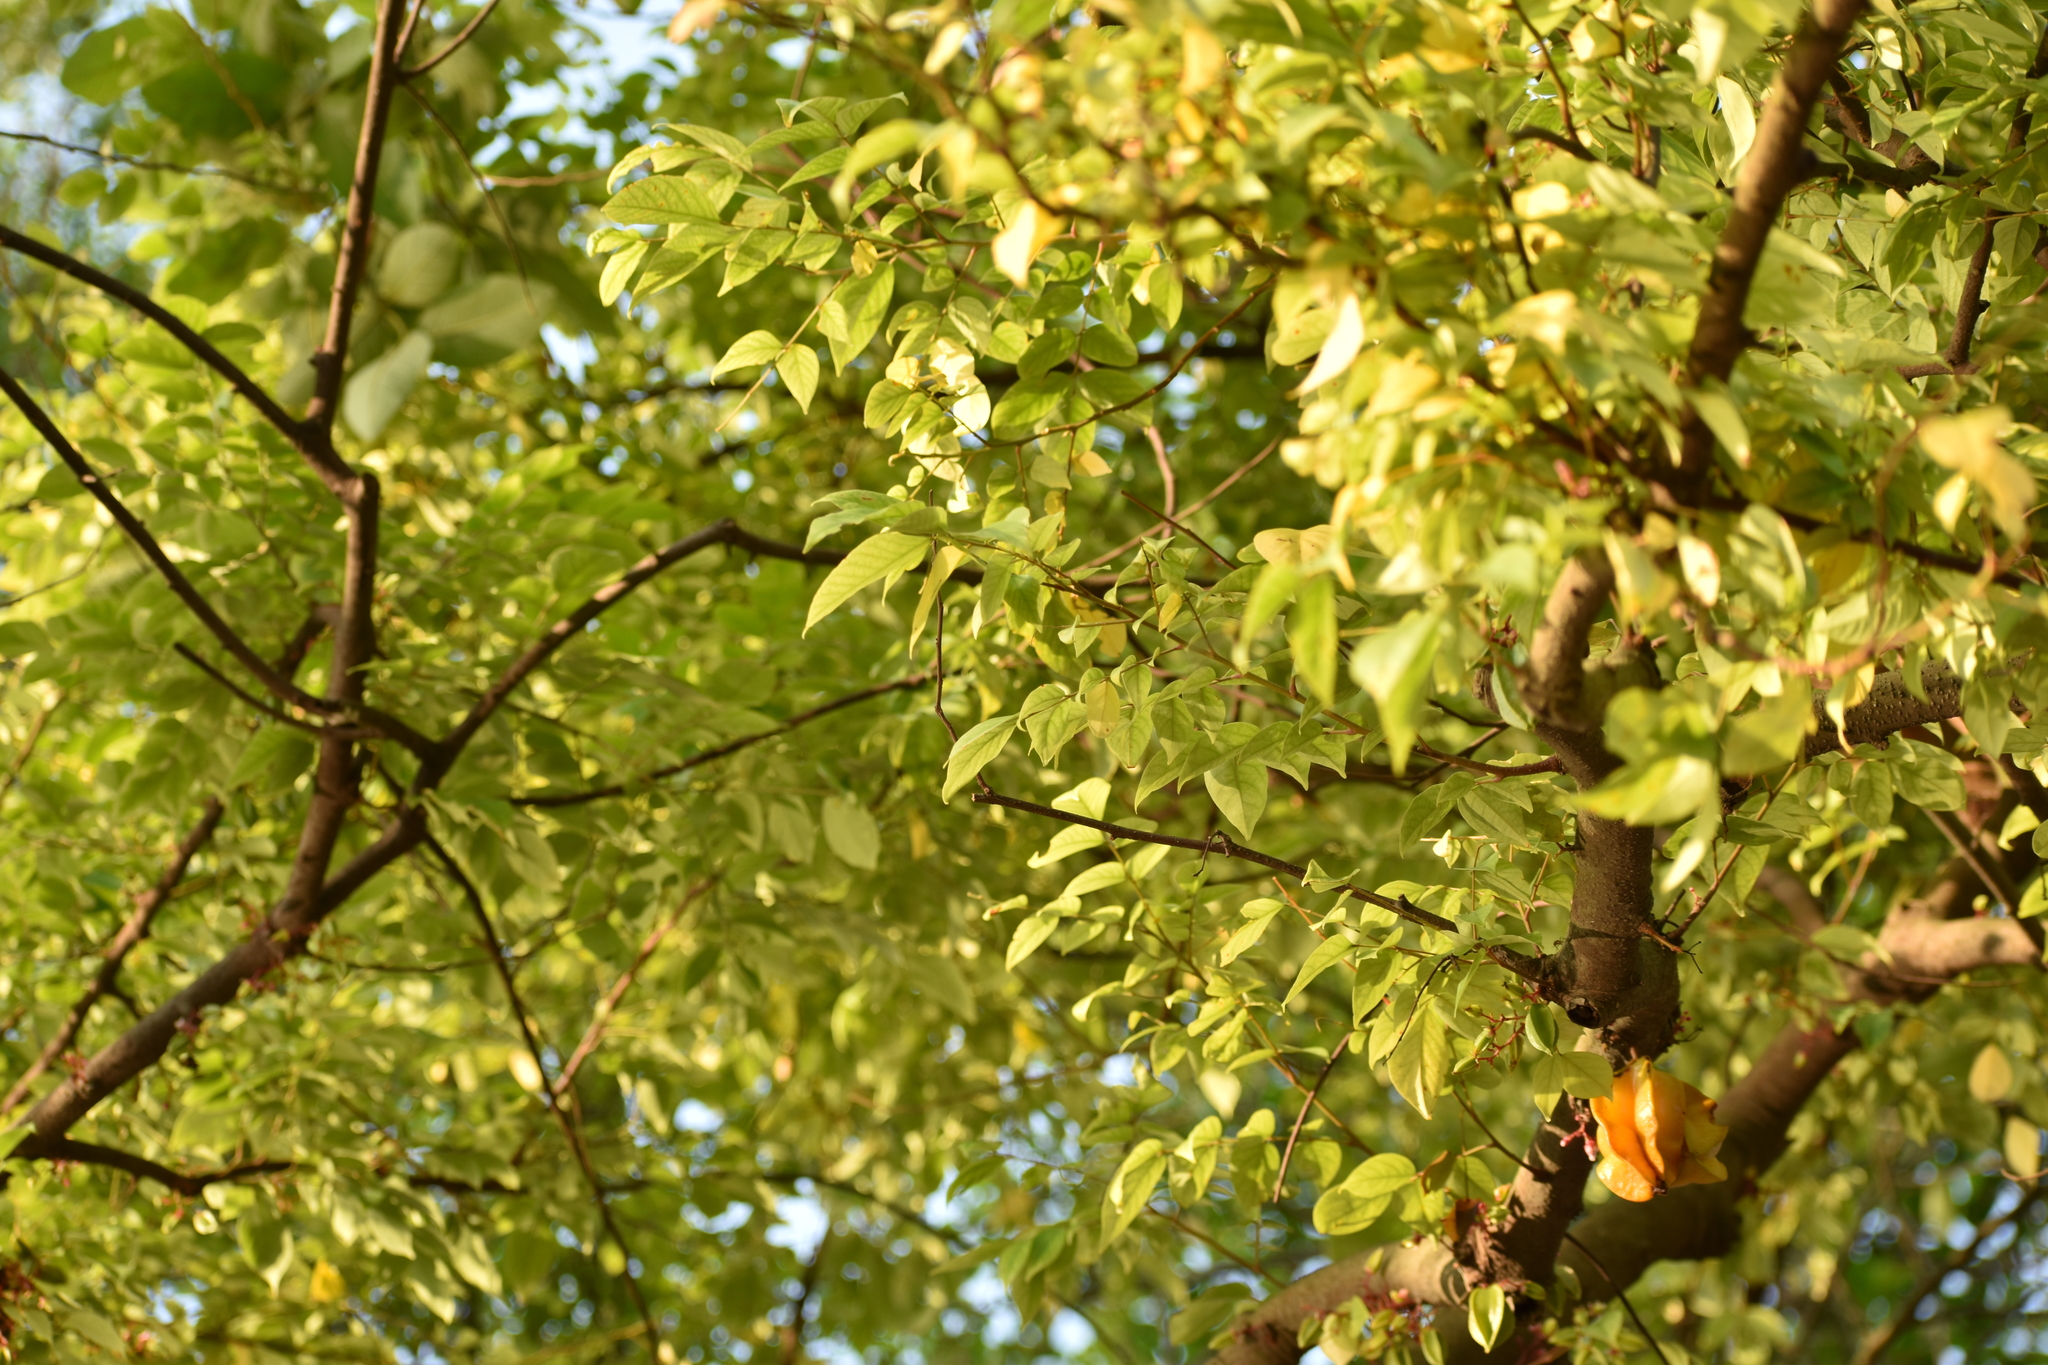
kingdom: Plantae
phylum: Tracheophyta
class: Magnoliopsida
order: Oxalidales
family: Oxalidaceae
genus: Averrhoa
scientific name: Averrhoa carambola
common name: Blimbing
